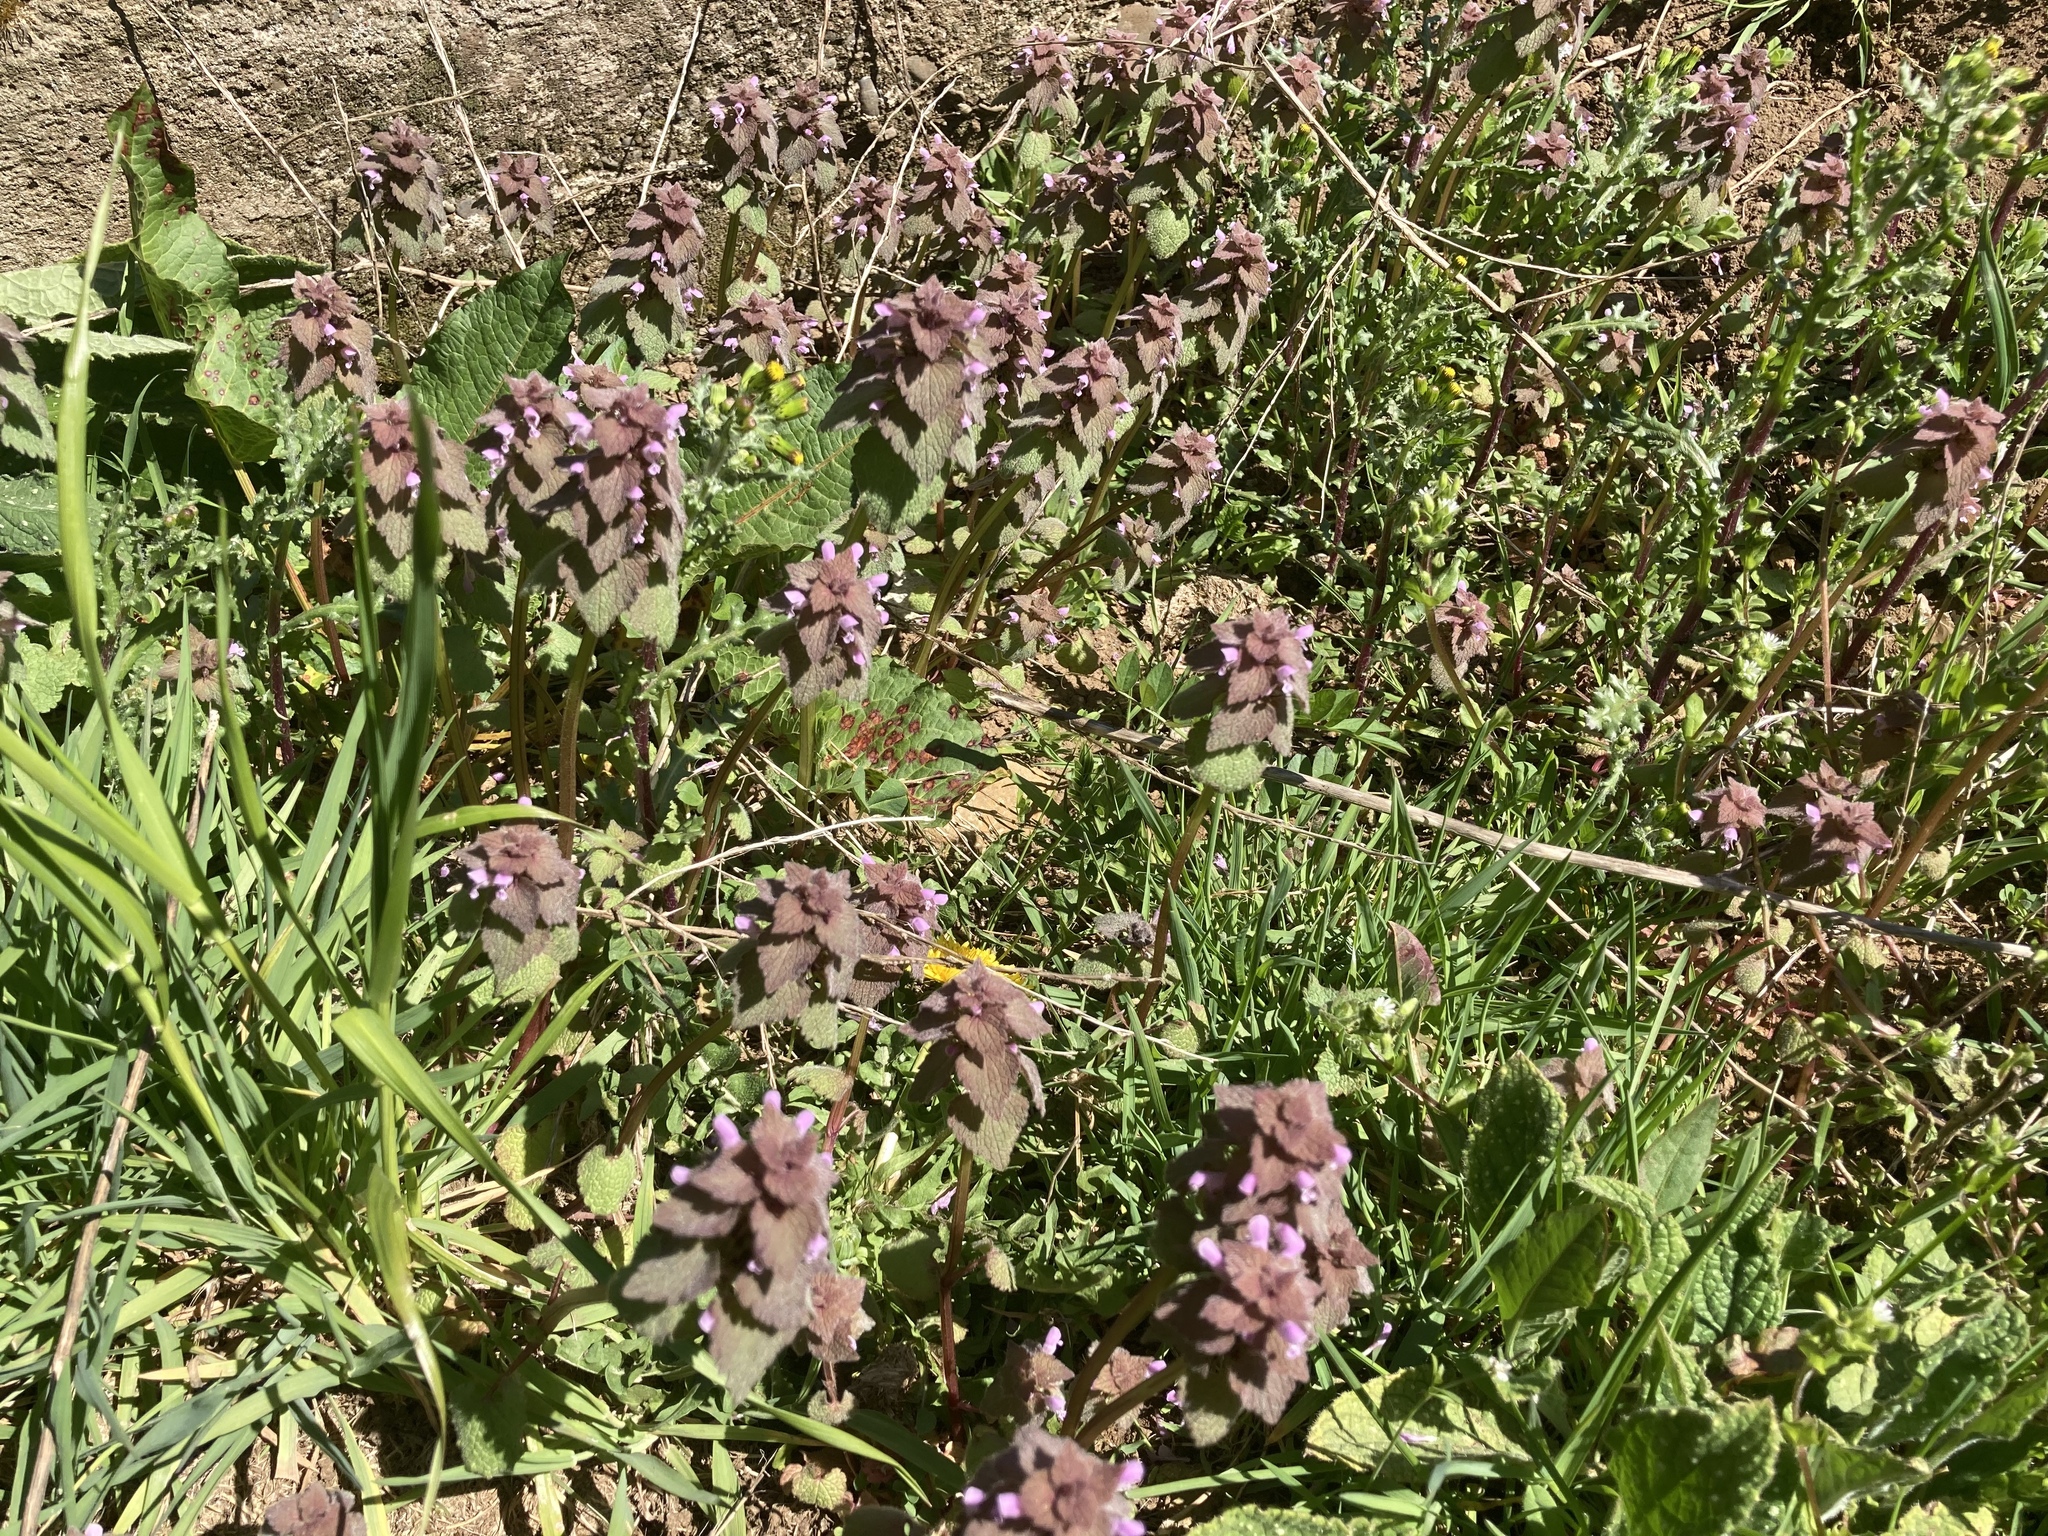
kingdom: Plantae
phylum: Tracheophyta
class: Magnoliopsida
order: Lamiales
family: Lamiaceae
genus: Lamium
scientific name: Lamium purpureum
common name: Red dead-nettle
